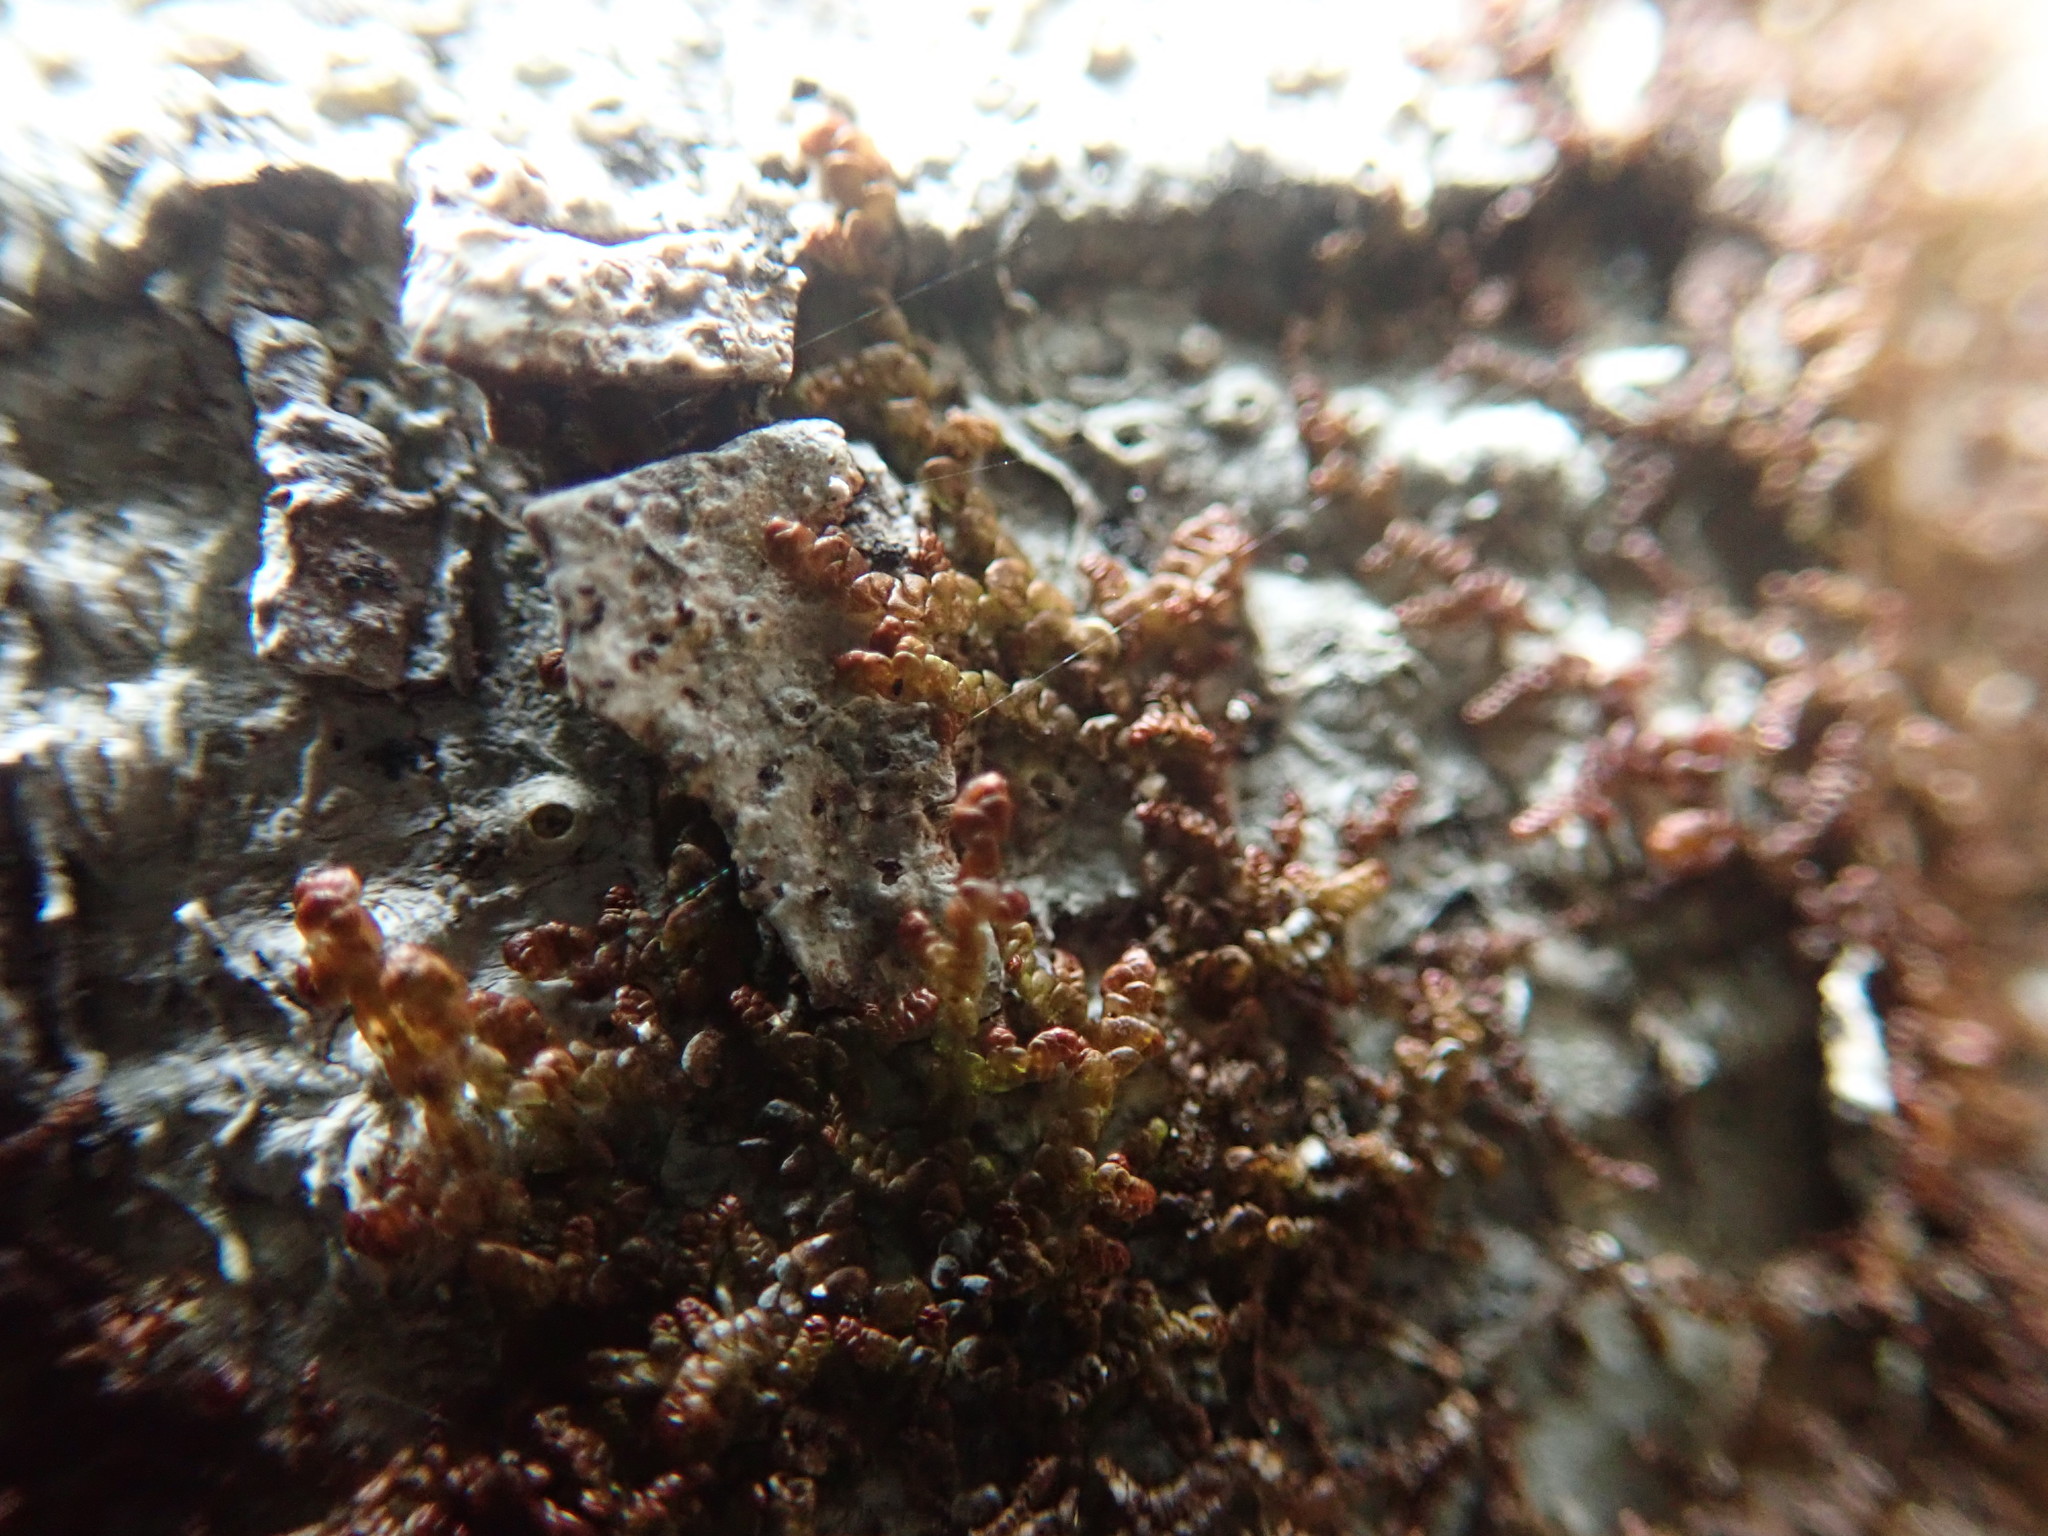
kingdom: Plantae
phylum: Marchantiophyta
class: Jungermanniopsida
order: Porellales
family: Frullaniaceae
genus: Frullania
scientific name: Frullania nisquallensis
